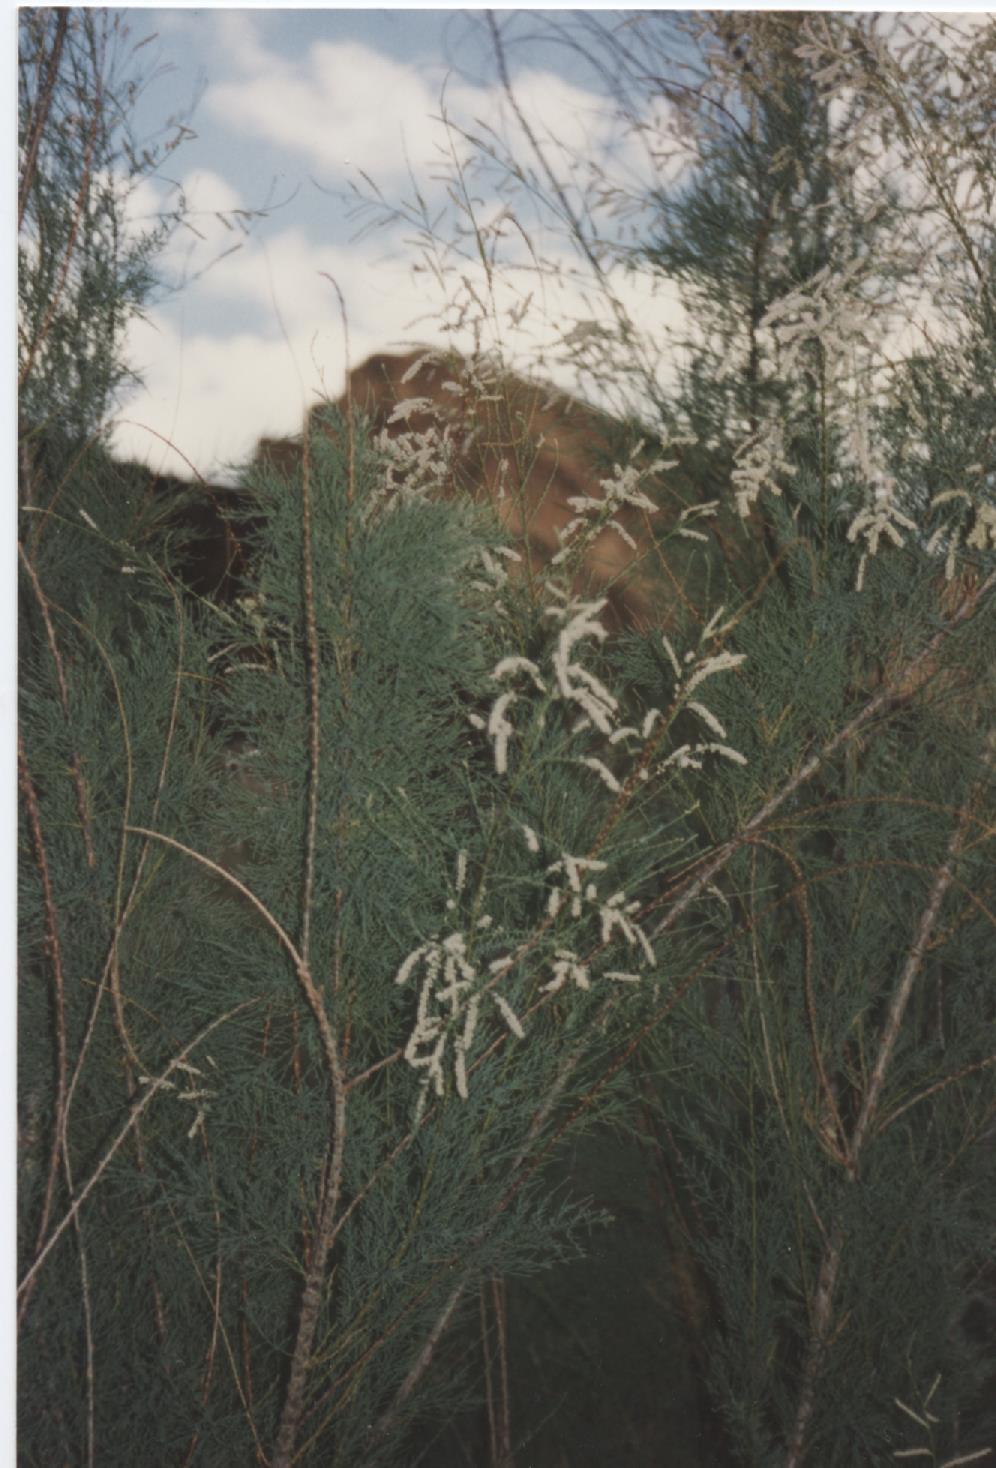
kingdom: Plantae
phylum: Tracheophyta
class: Magnoliopsida
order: Caryophyllales
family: Tamaricaceae
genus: Tamarix
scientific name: Tamarix
